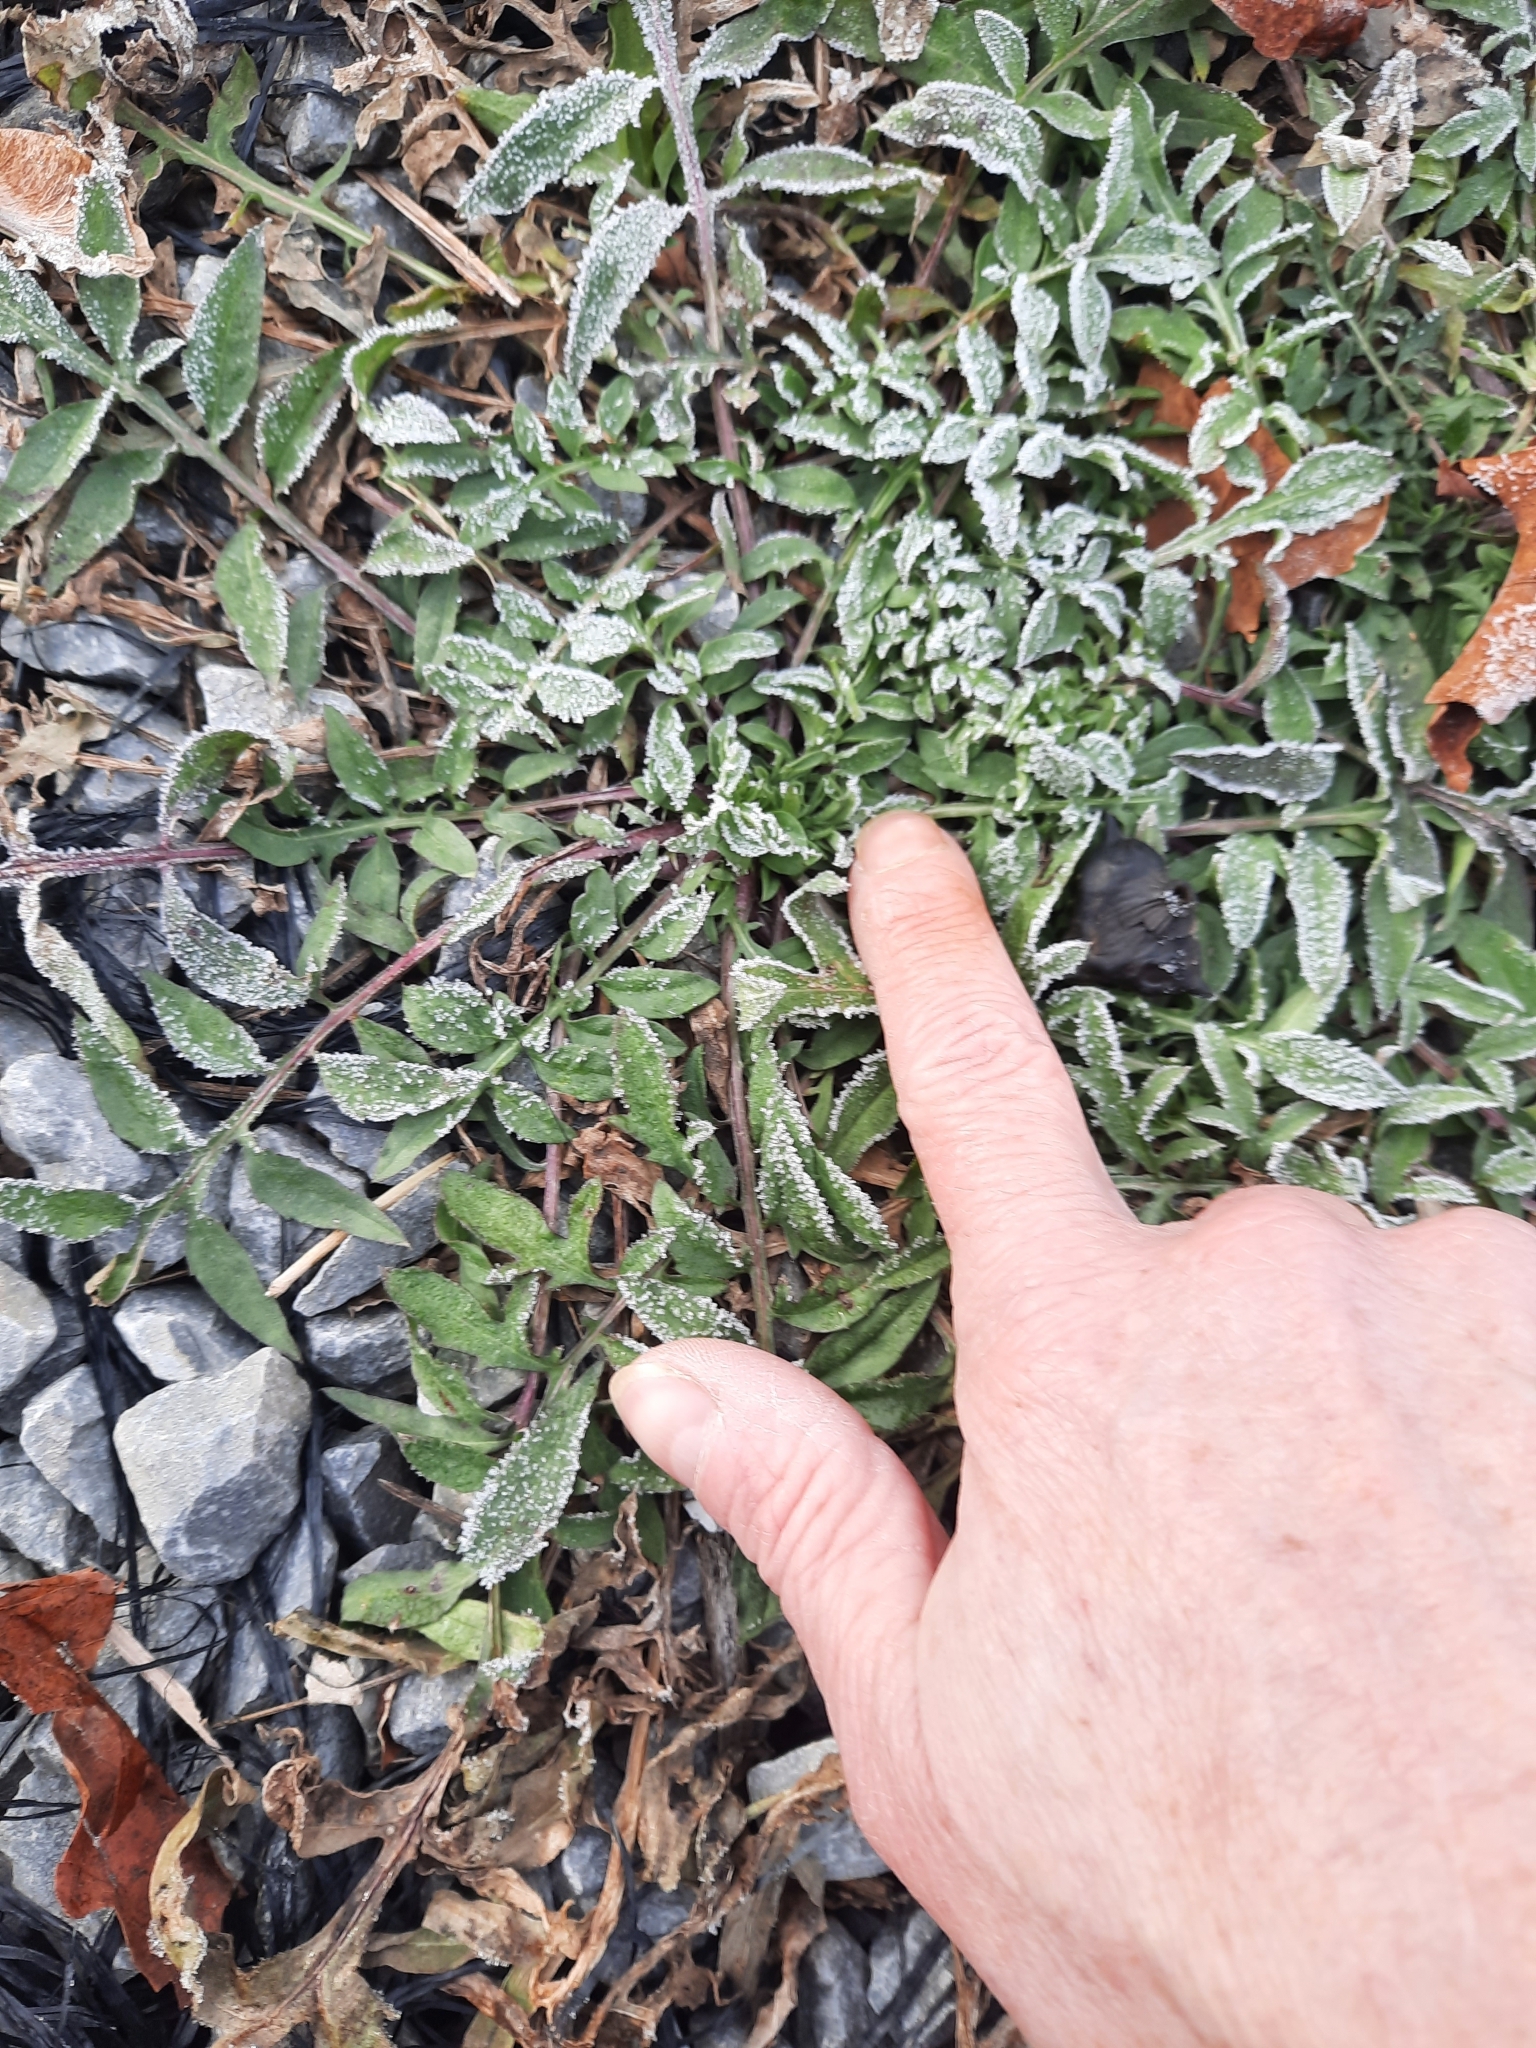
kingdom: Plantae
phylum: Tracheophyta
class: Magnoliopsida
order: Asterales
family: Asteraceae
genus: Centaurea
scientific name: Centaurea stoebe
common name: Spotted knapweed
